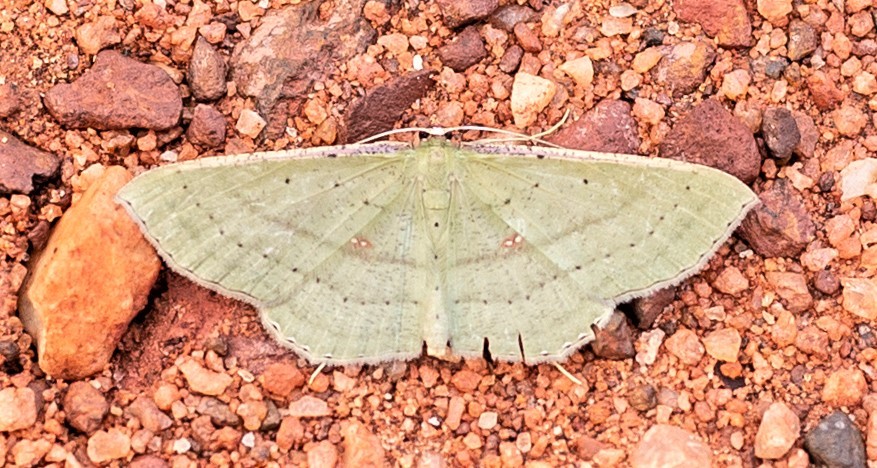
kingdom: Animalia
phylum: Arthropoda
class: Insecta
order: Lepidoptera
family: Geometridae
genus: Ametris
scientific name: Ametris nitocris
